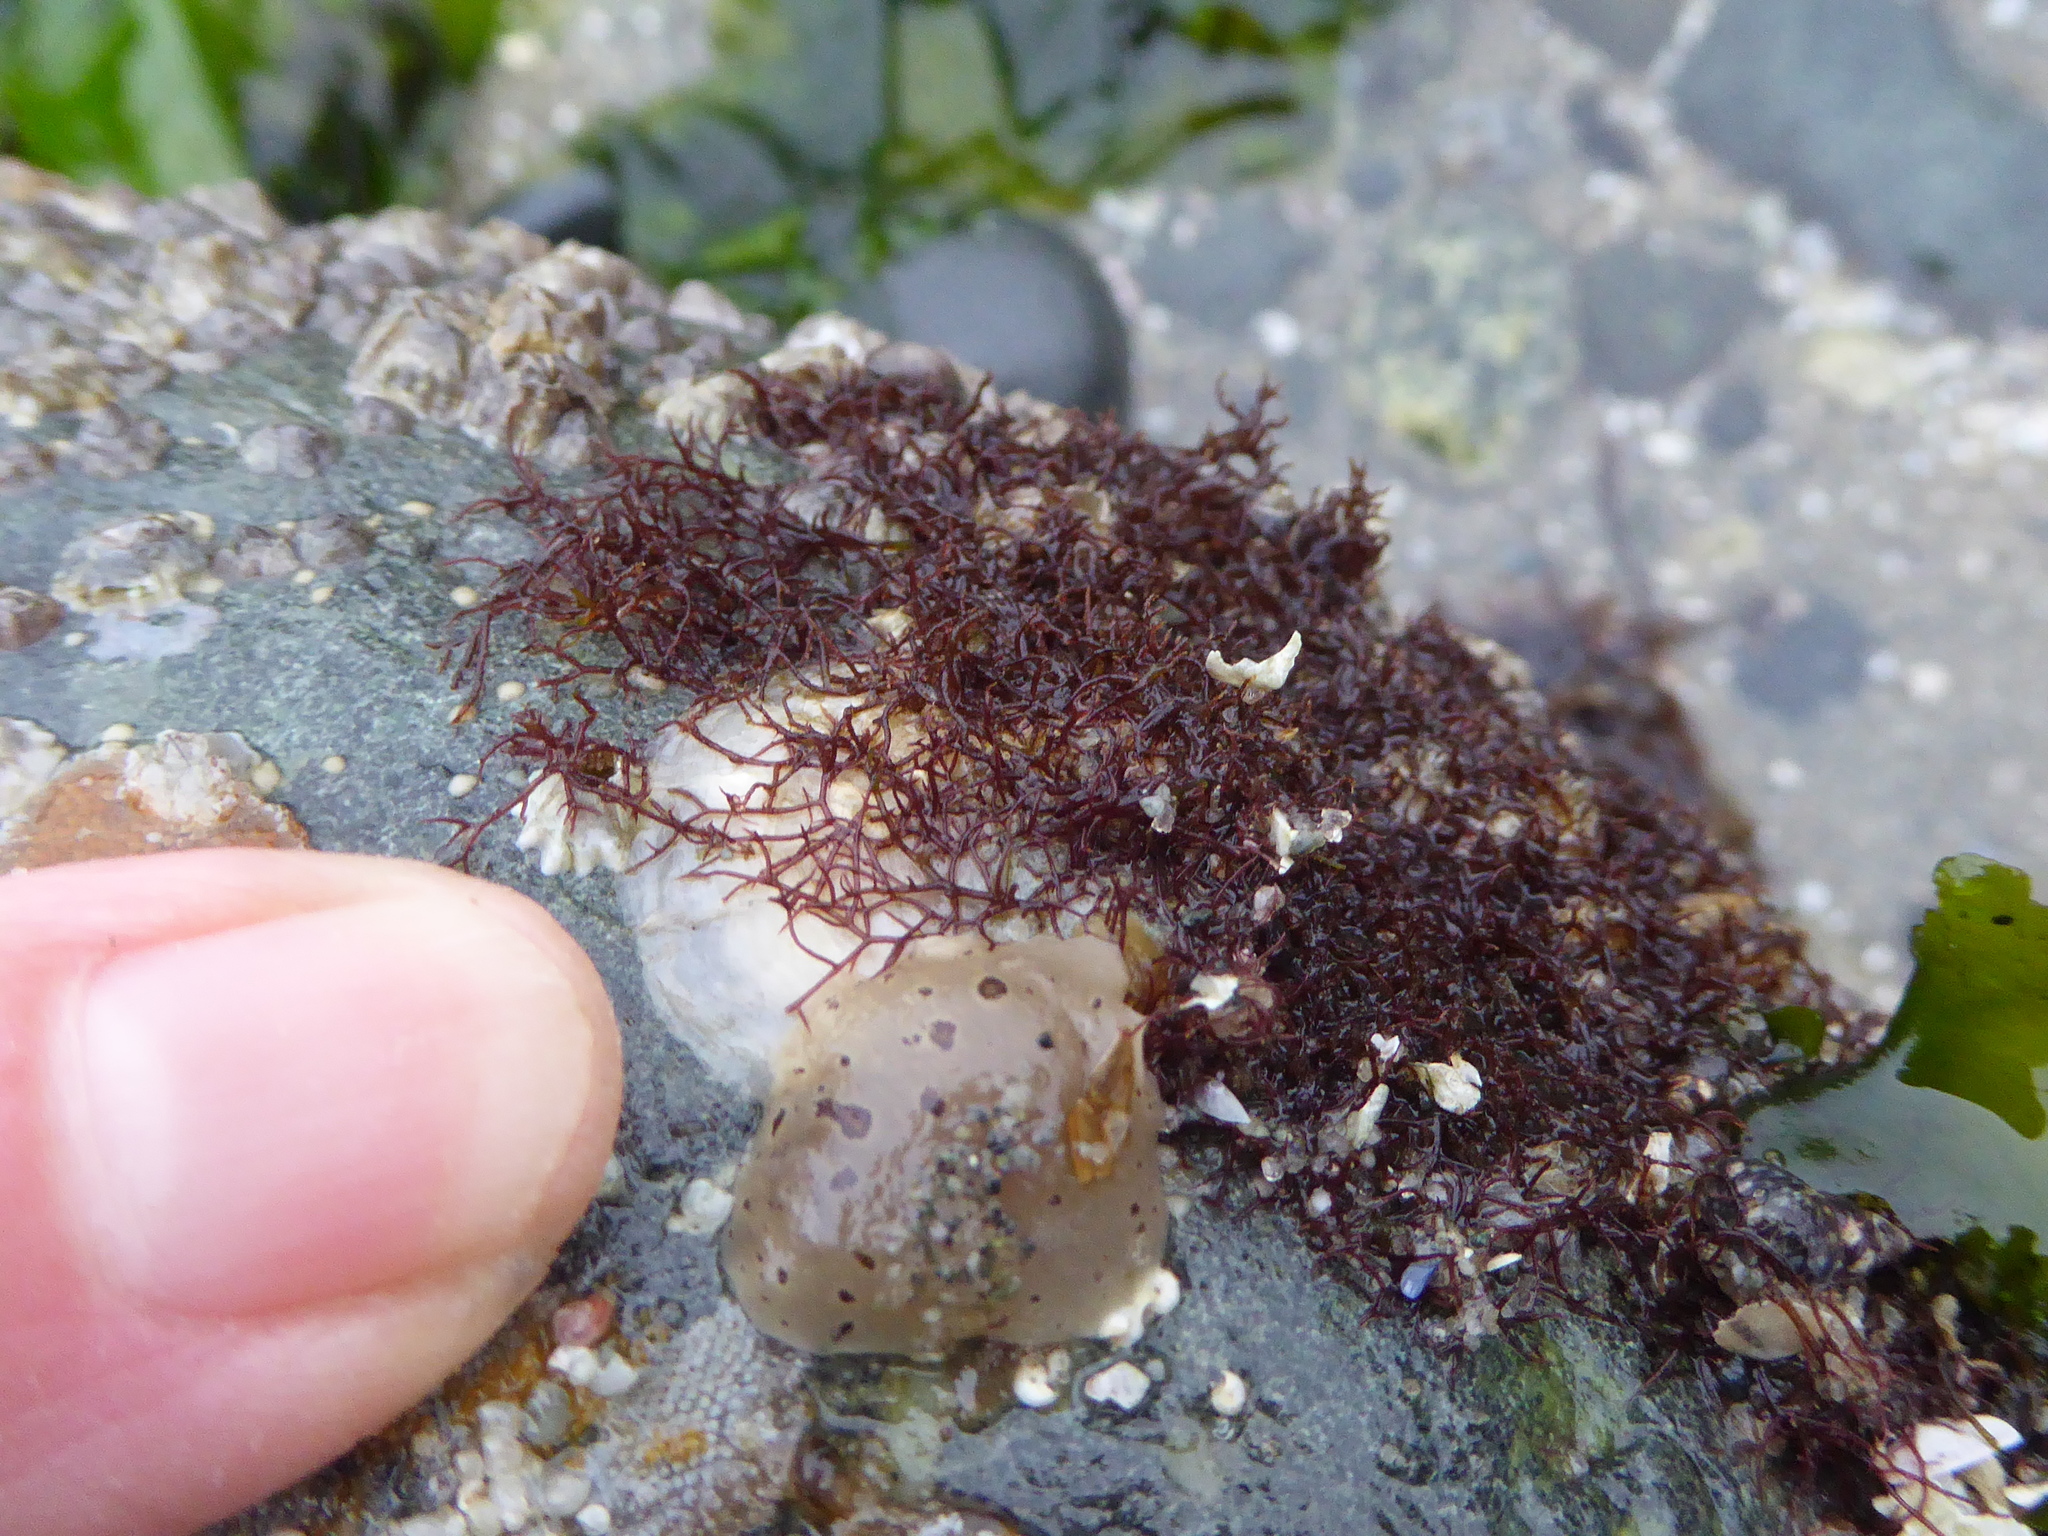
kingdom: Animalia
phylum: Mollusca
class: Gastropoda
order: Nudibranchia
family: Discodorididae
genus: Diaulula
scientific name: Diaulula odonoghuei
